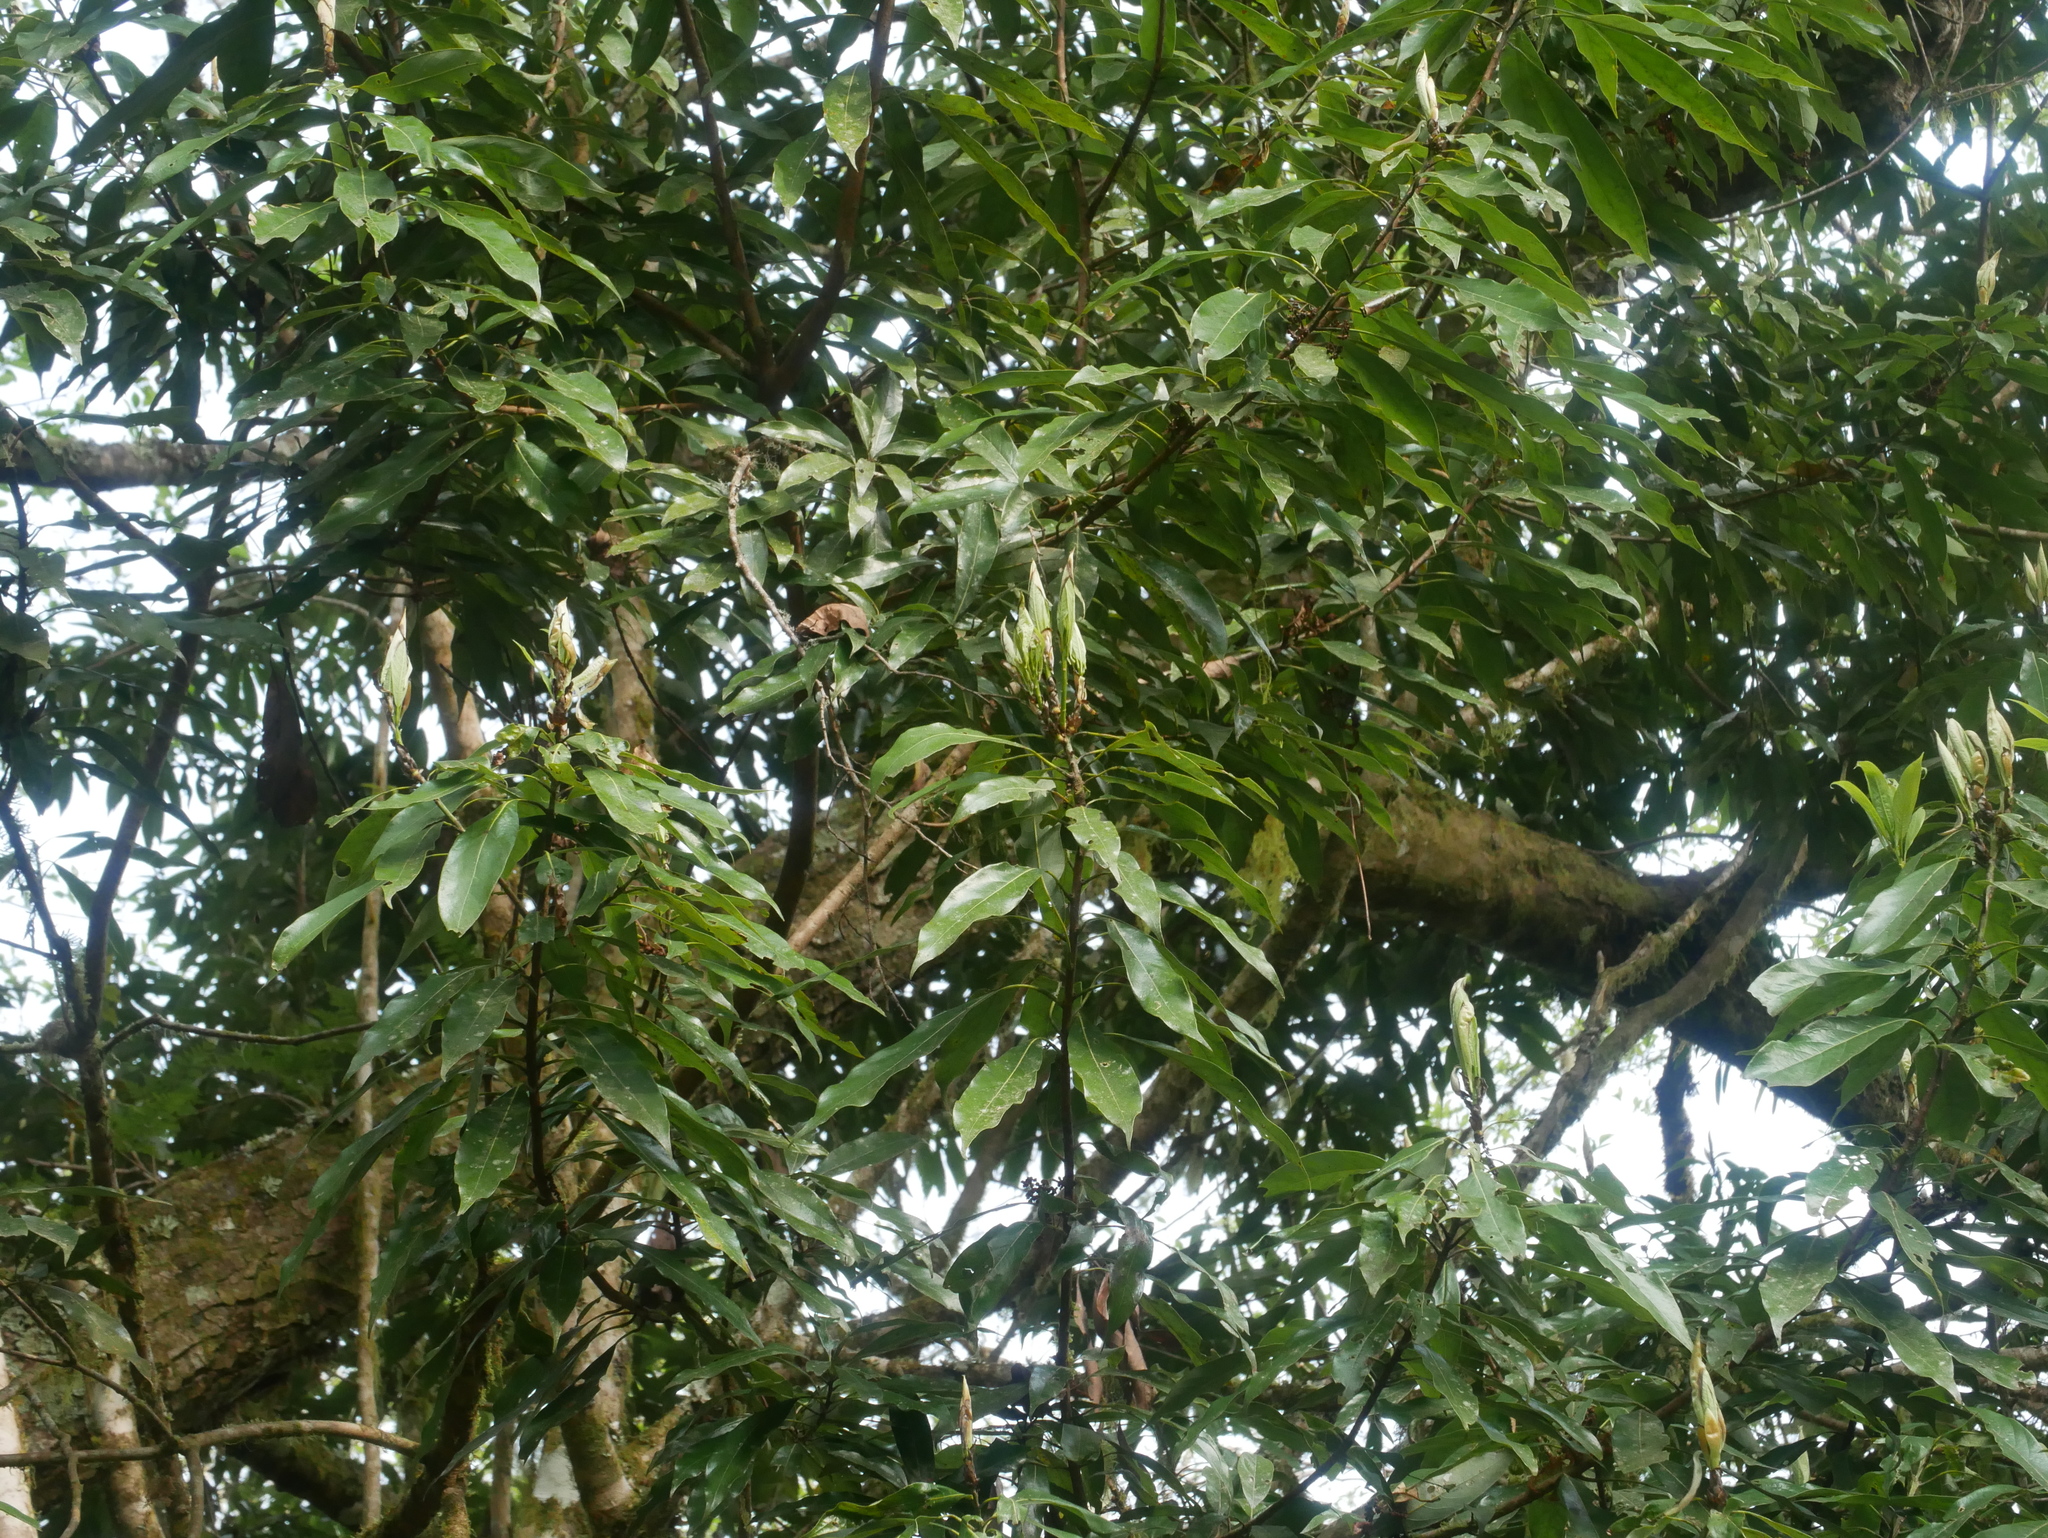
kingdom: Plantae
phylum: Tracheophyta
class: Magnoliopsida
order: Laurales
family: Lauraceae
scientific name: Lauraceae
